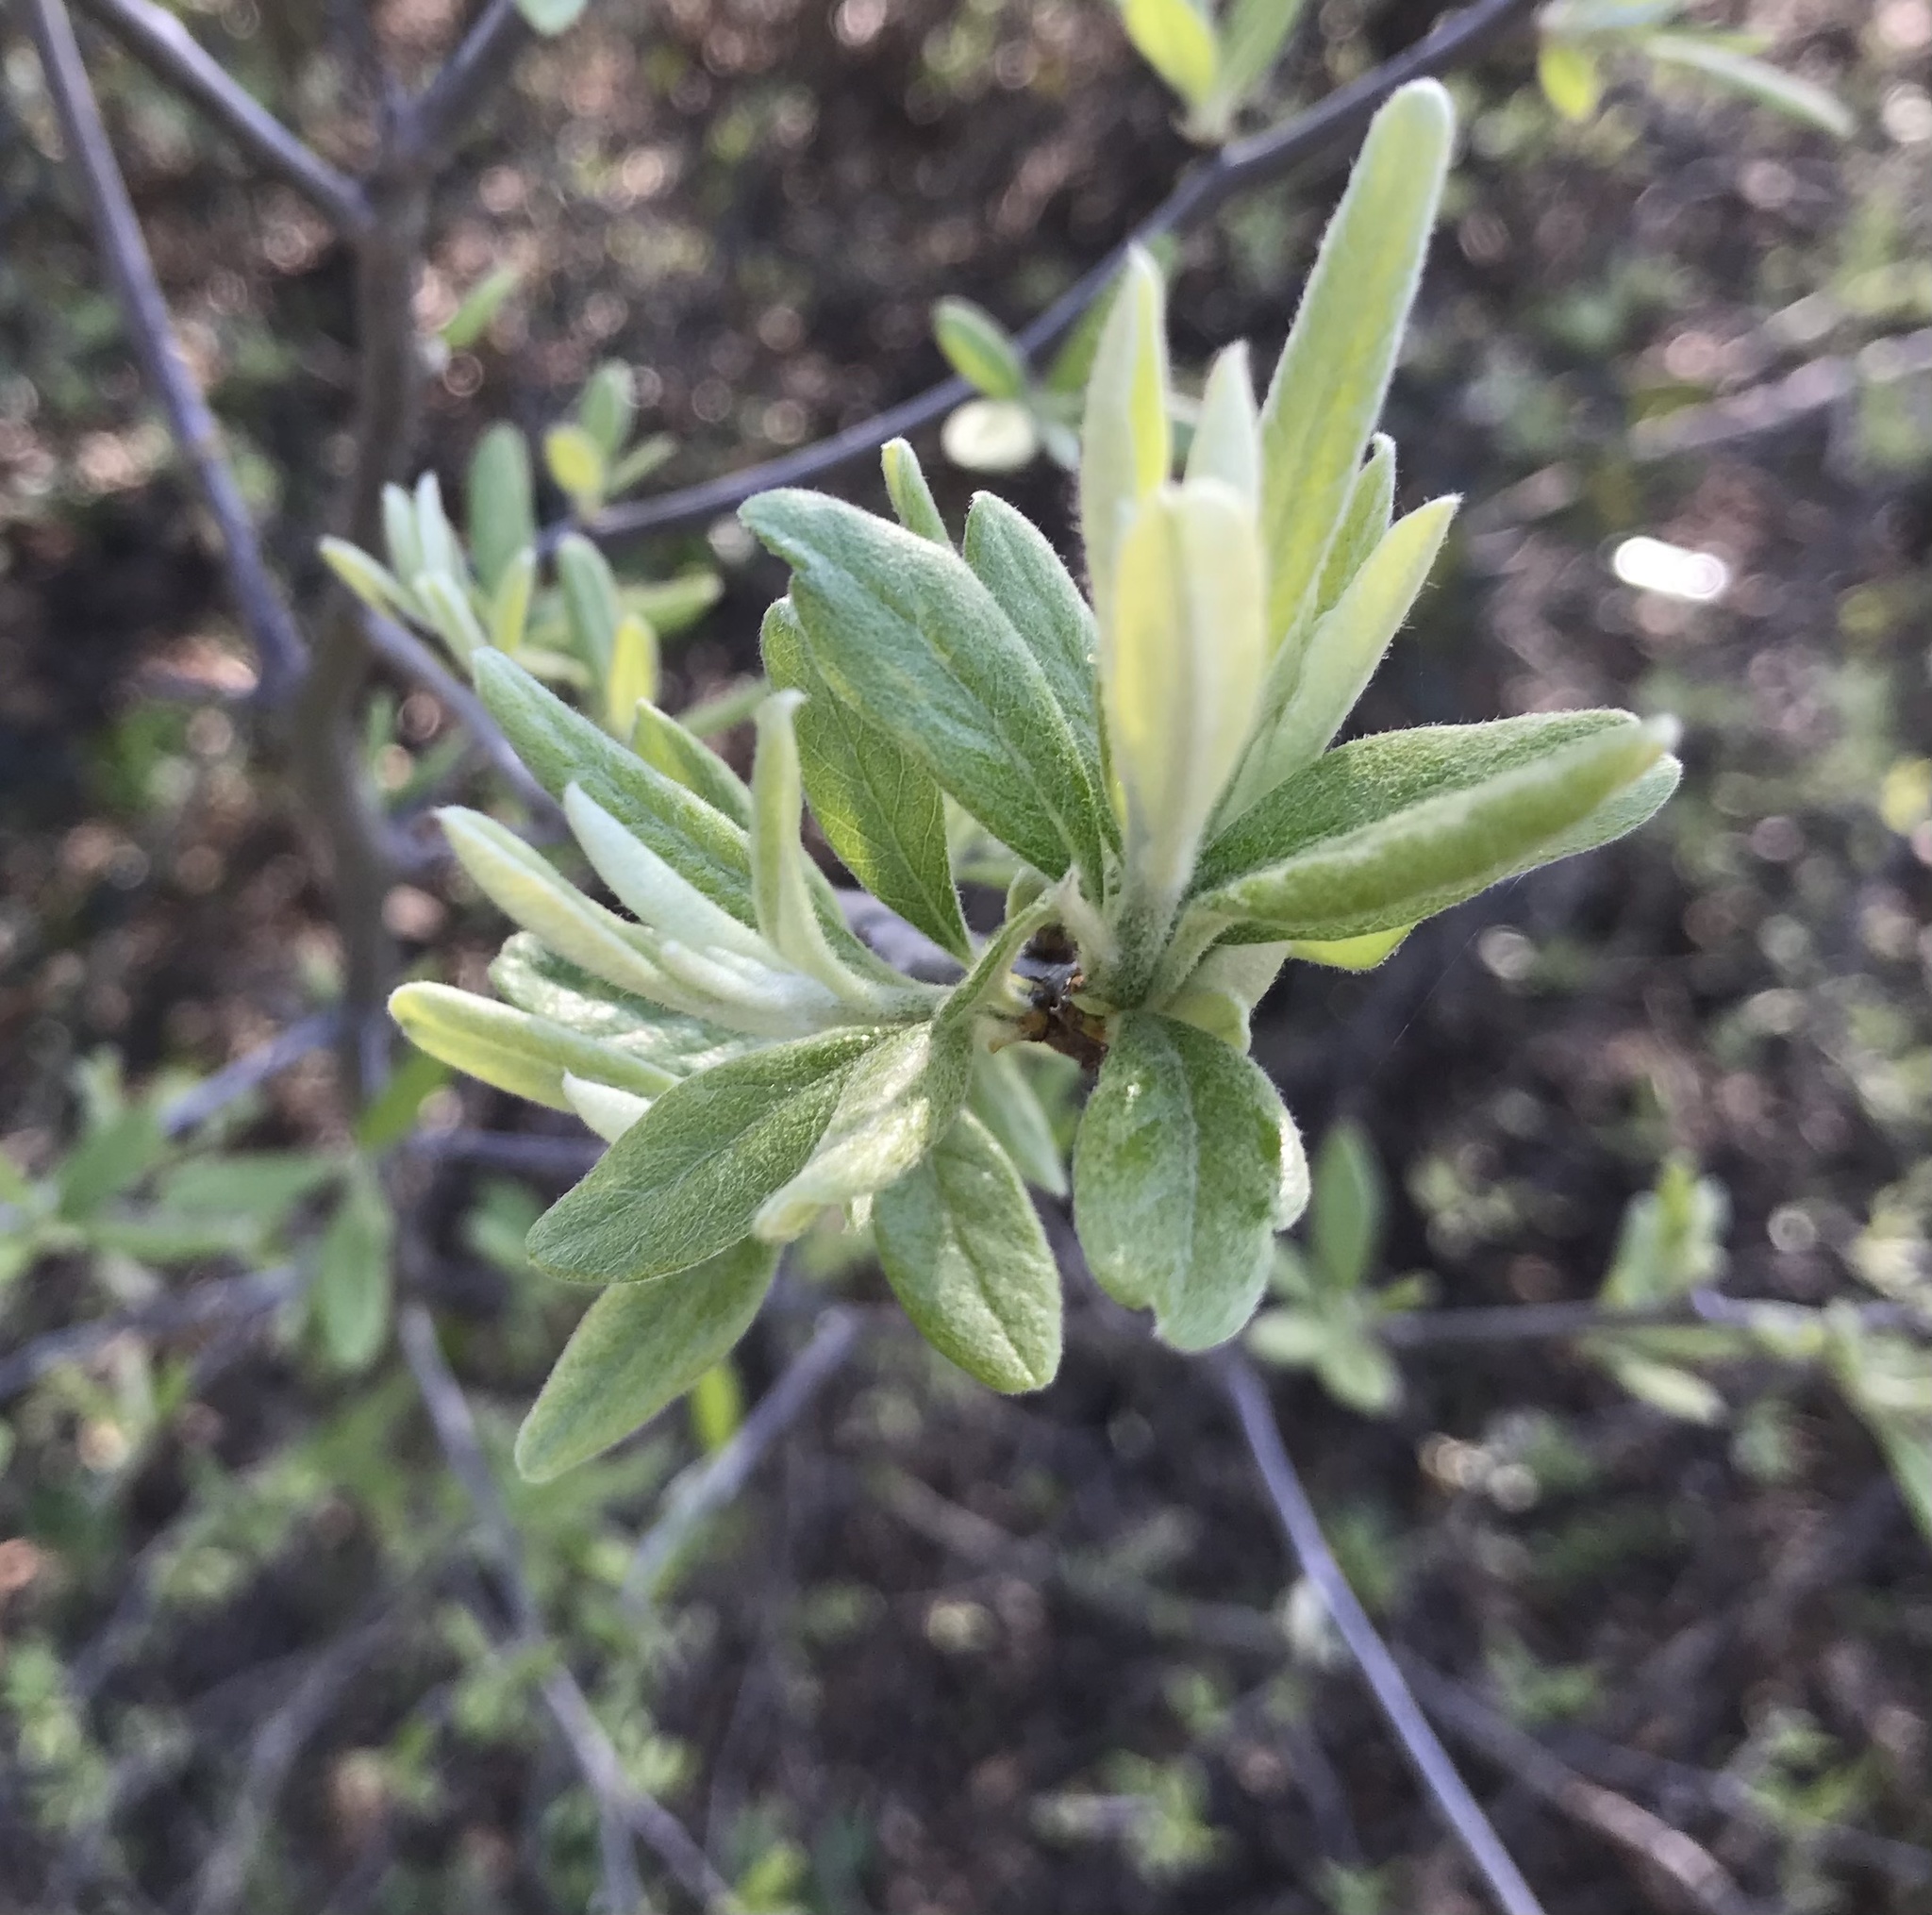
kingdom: Plantae
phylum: Tracheophyta
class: Magnoliopsida
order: Ericales
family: Sapotaceae
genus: Sideroxylon
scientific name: Sideroxylon lanuginosum
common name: Chittamwood
